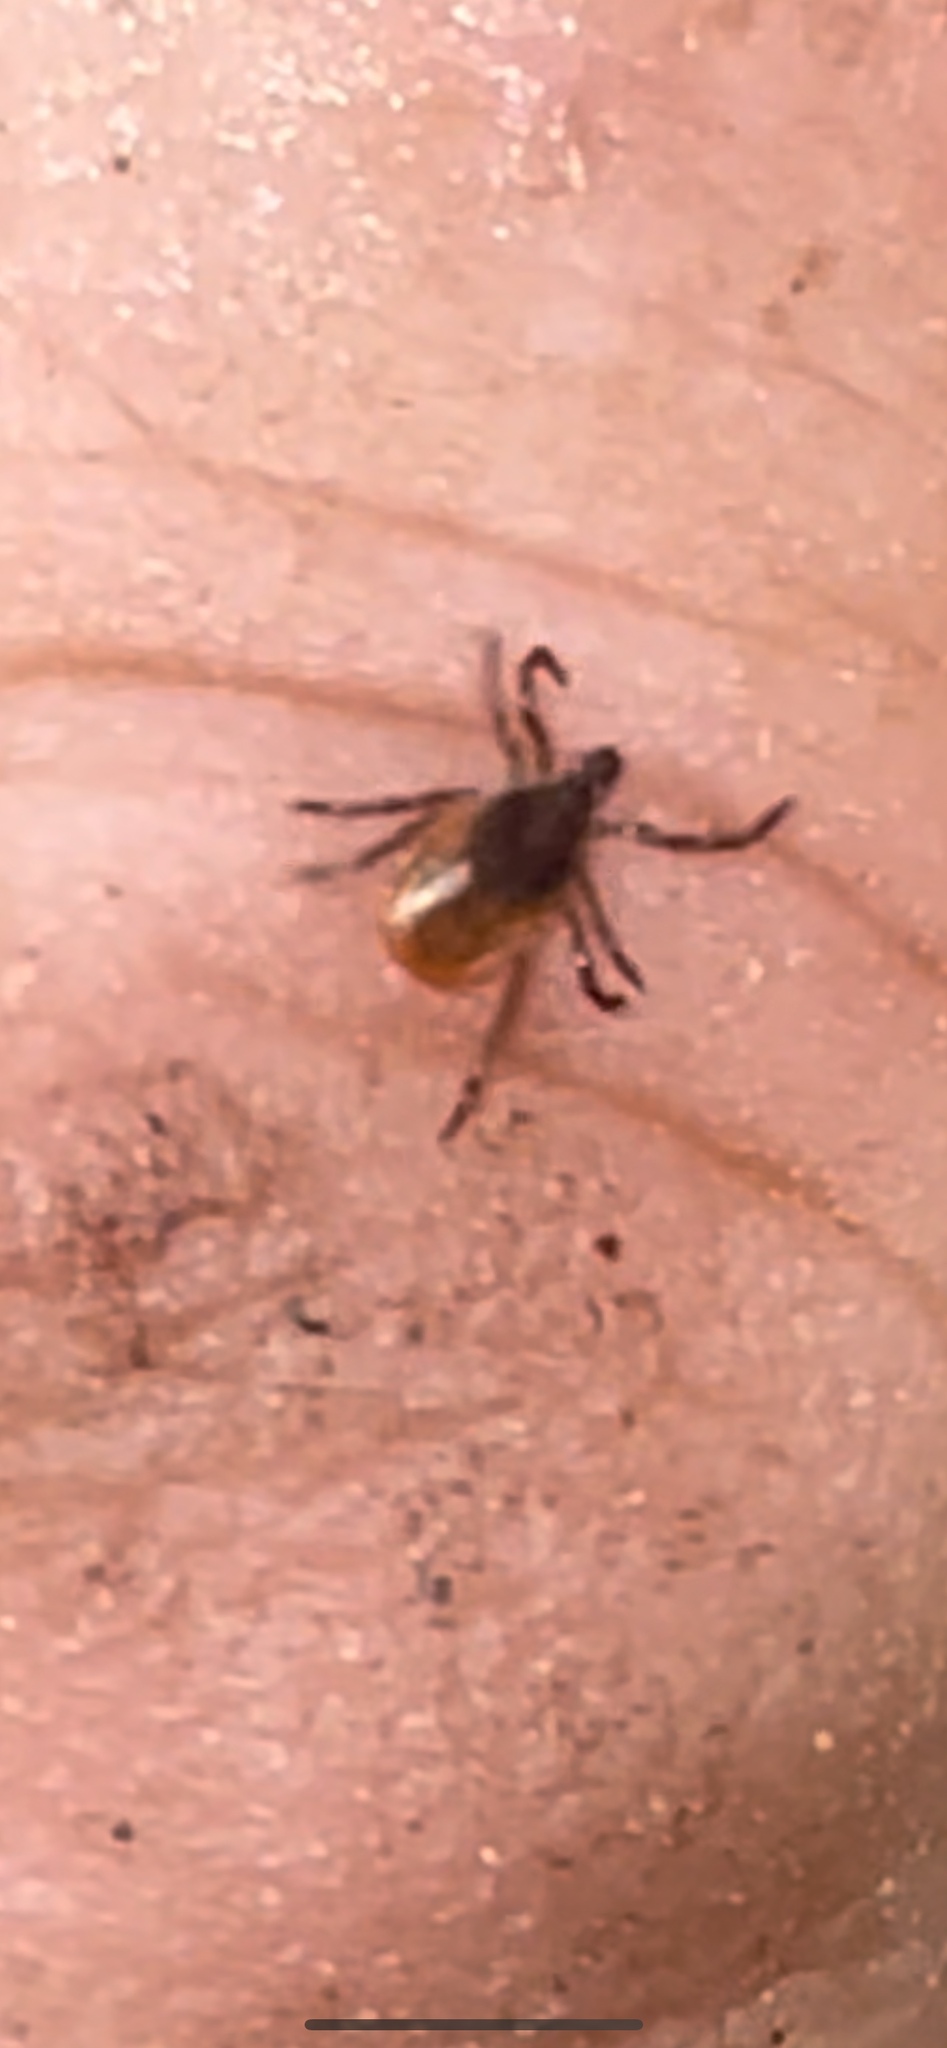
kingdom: Animalia
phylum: Arthropoda
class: Arachnida
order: Ixodida
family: Ixodidae
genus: Ixodes
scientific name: Ixodes scapularis
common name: Black legged tick
